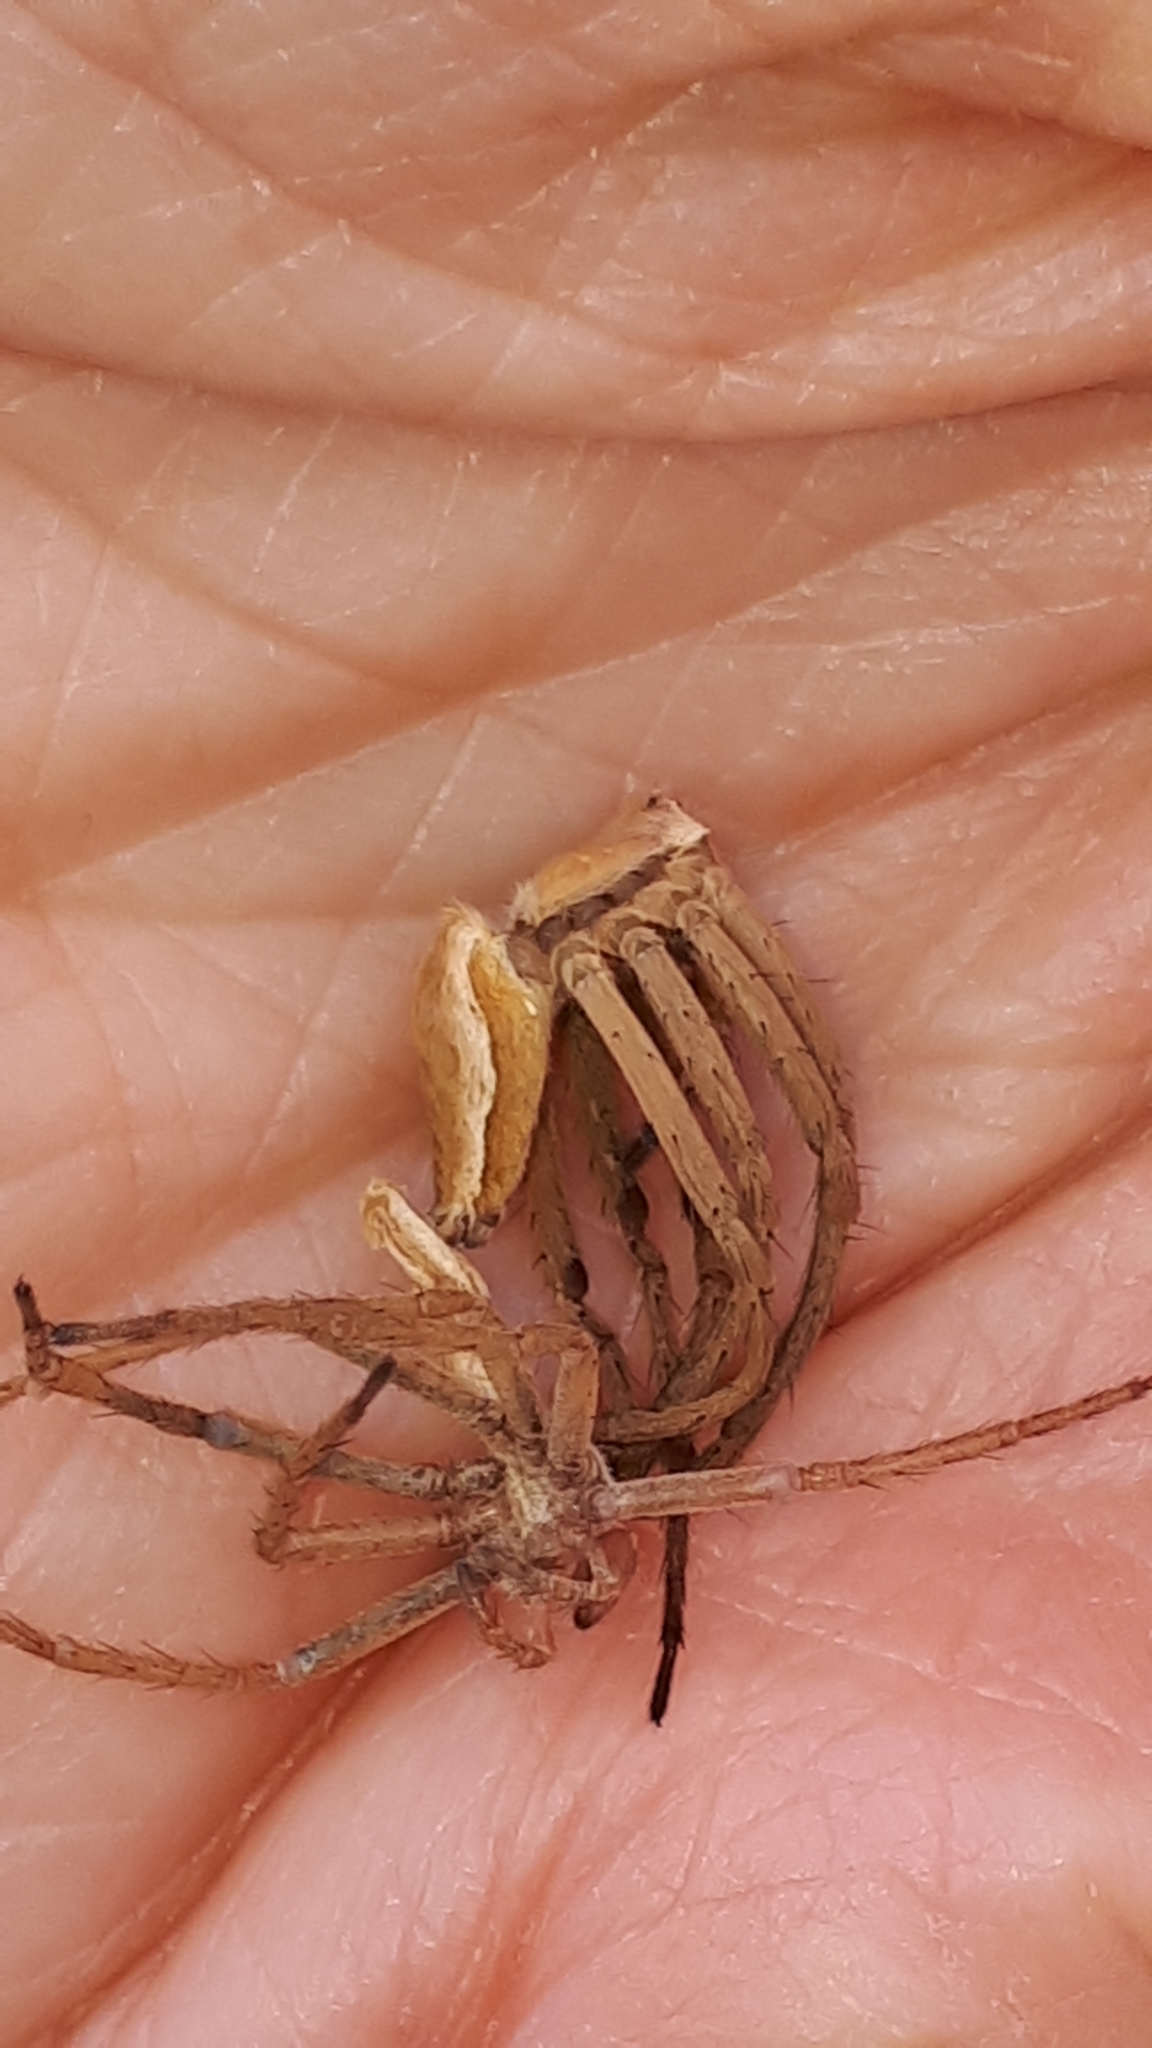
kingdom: Animalia
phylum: Arthropoda
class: Arachnida
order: Araneae
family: Pisauridae
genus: Pisaura
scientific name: Pisaura mirabilis
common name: Tent spider
